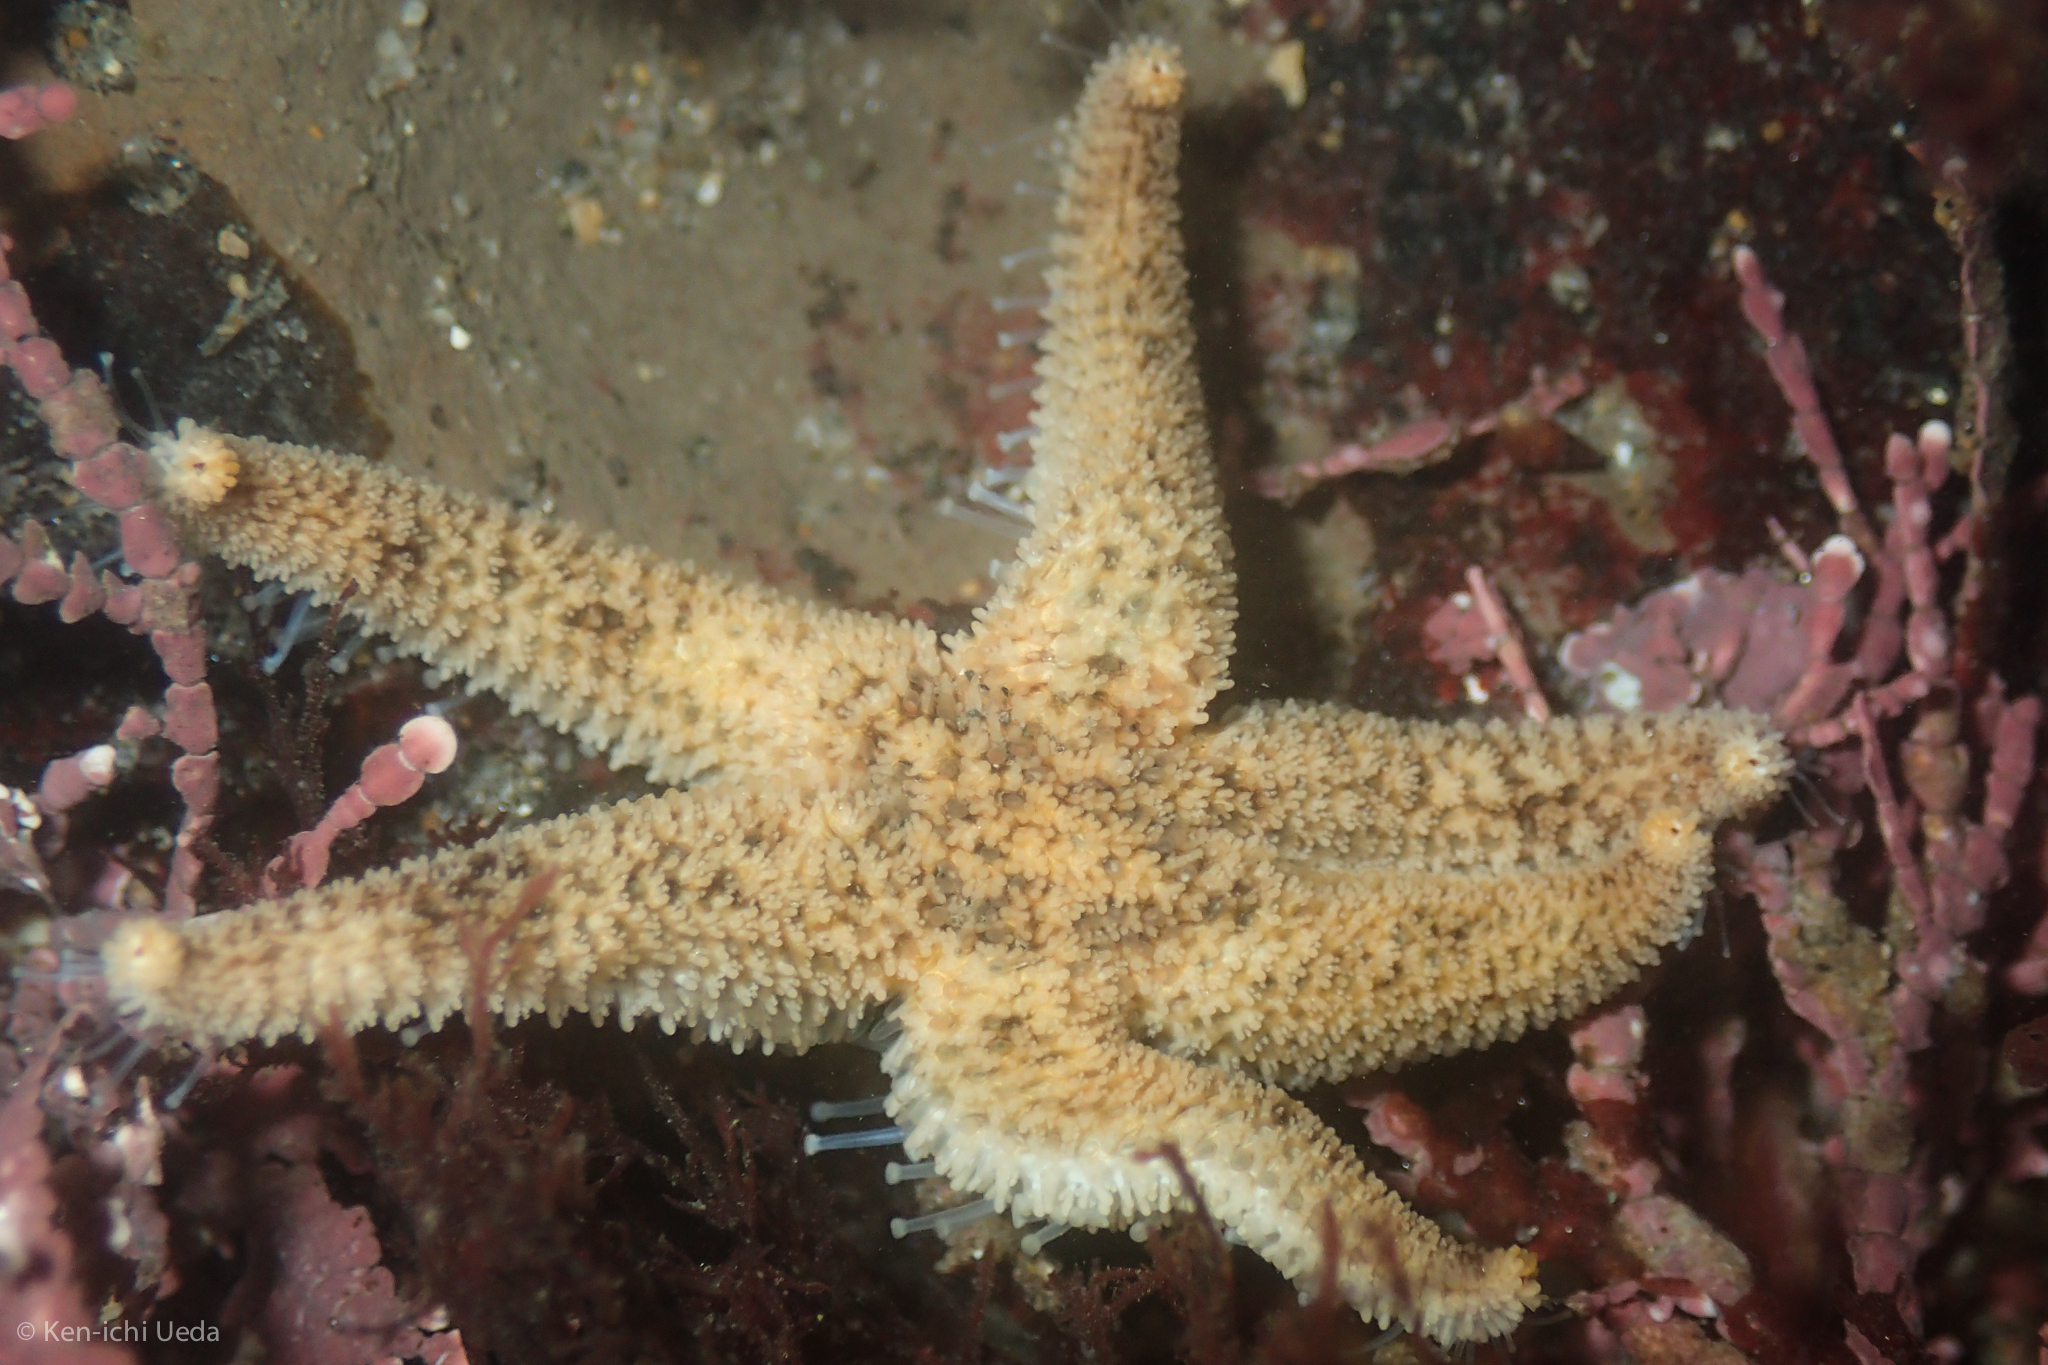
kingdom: Animalia
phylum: Echinodermata
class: Asteroidea
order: Forcipulatida
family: Asteriidae
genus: Leptasterias
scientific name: Leptasterias hexactis
